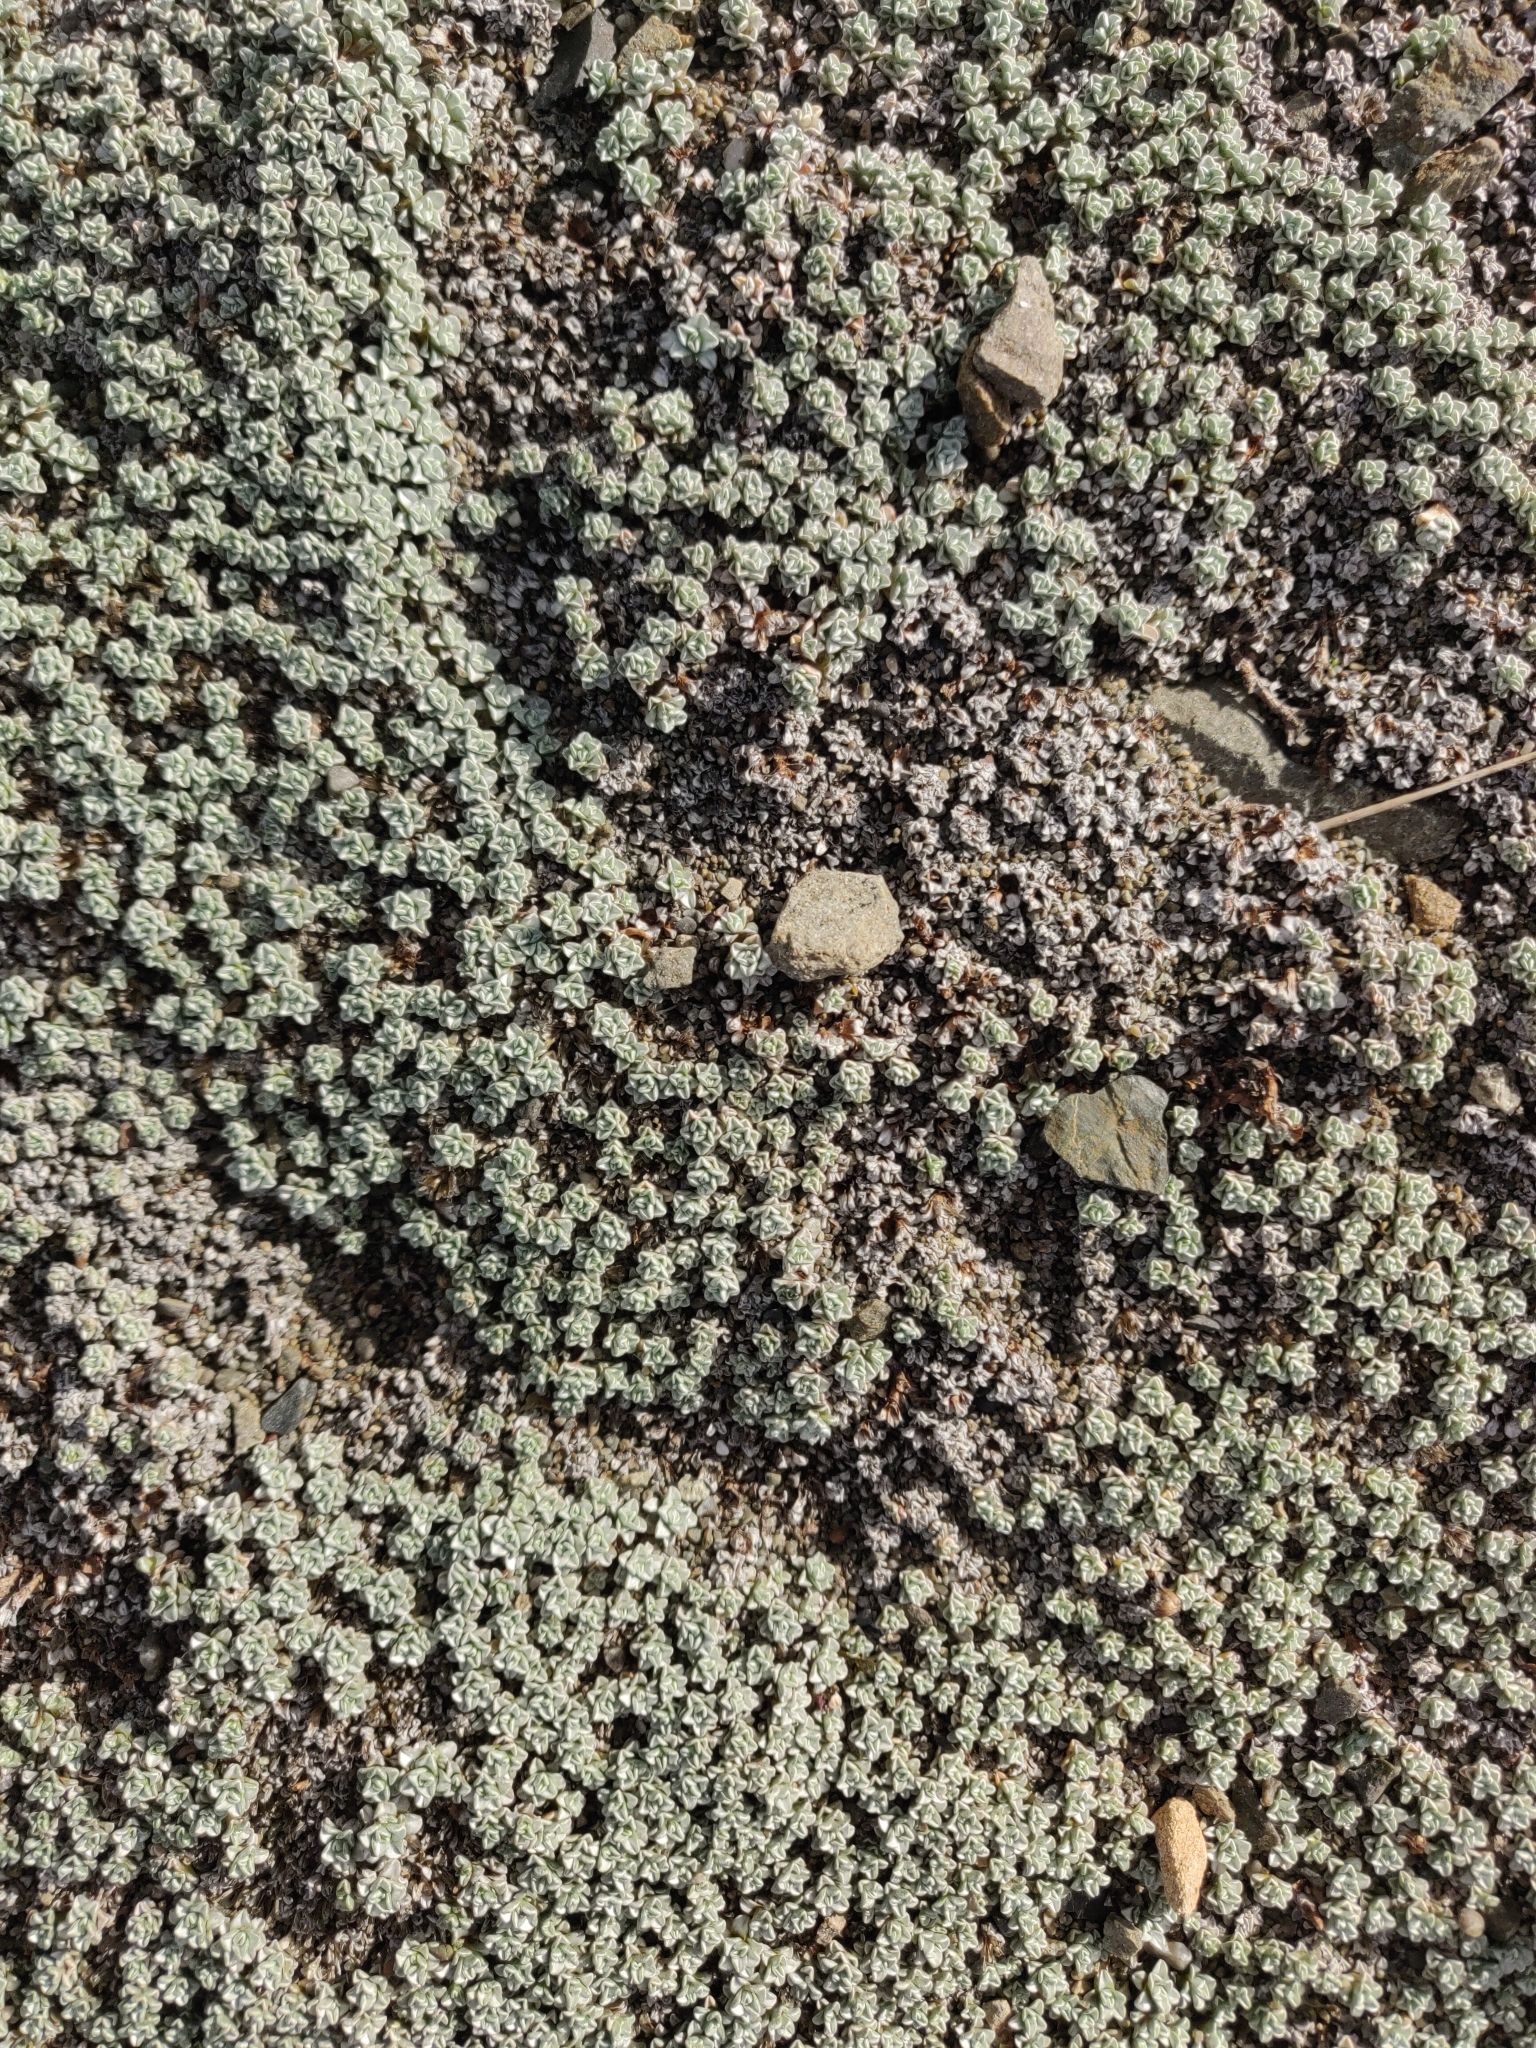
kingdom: Plantae
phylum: Tracheophyta
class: Magnoliopsida
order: Asterales
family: Asteraceae
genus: Raoulia
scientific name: Raoulia hookeri
